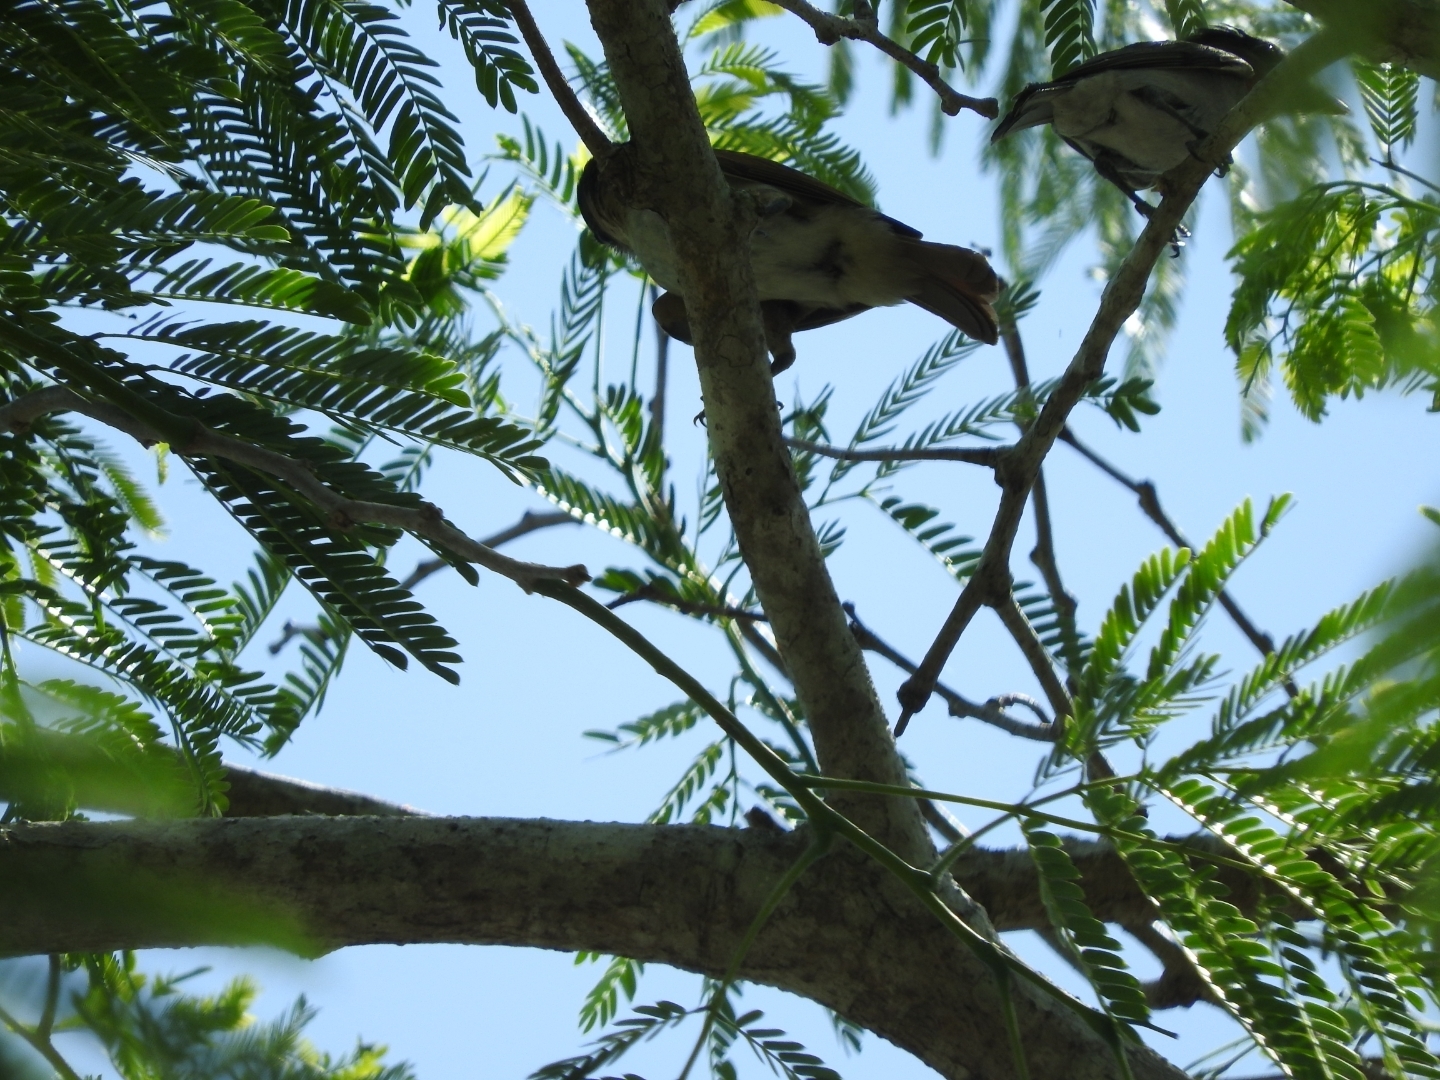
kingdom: Animalia
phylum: Chordata
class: Aves
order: Passeriformes
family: Cotingidae
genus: Pachyramphus
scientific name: Pachyramphus aglaiae
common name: Rose-throated becard
